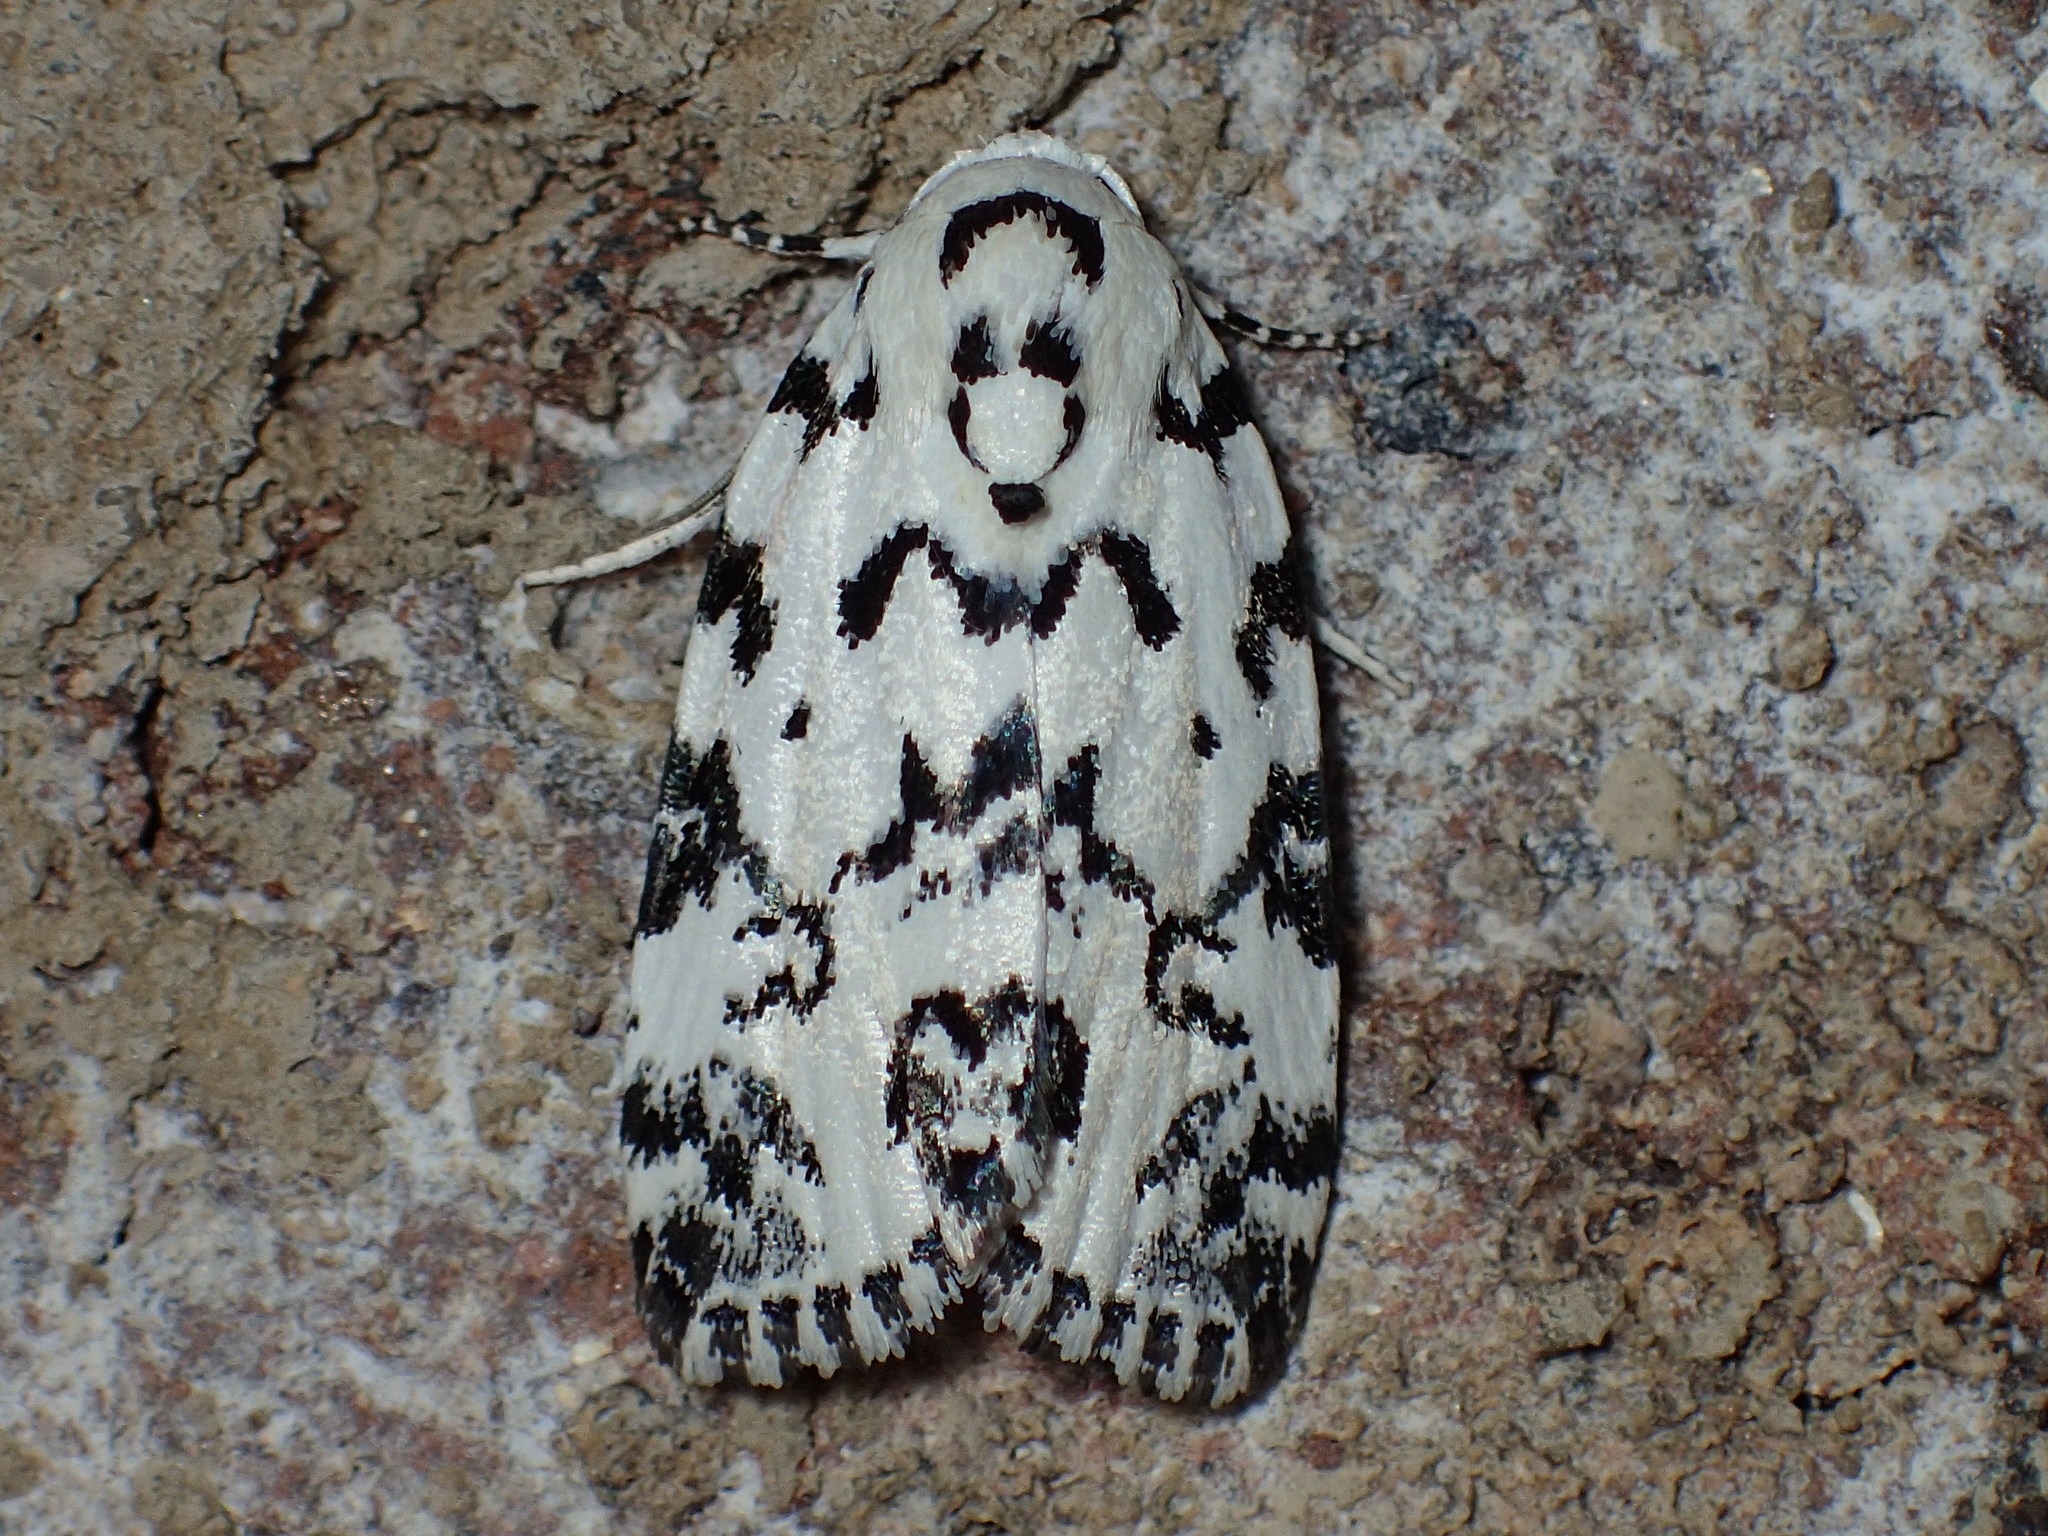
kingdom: Animalia
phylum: Arthropoda
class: Insecta
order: Lepidoptera
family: Noctuidae
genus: Polygrammate
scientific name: Polygrammate hebraeicum
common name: Hebrew moth
